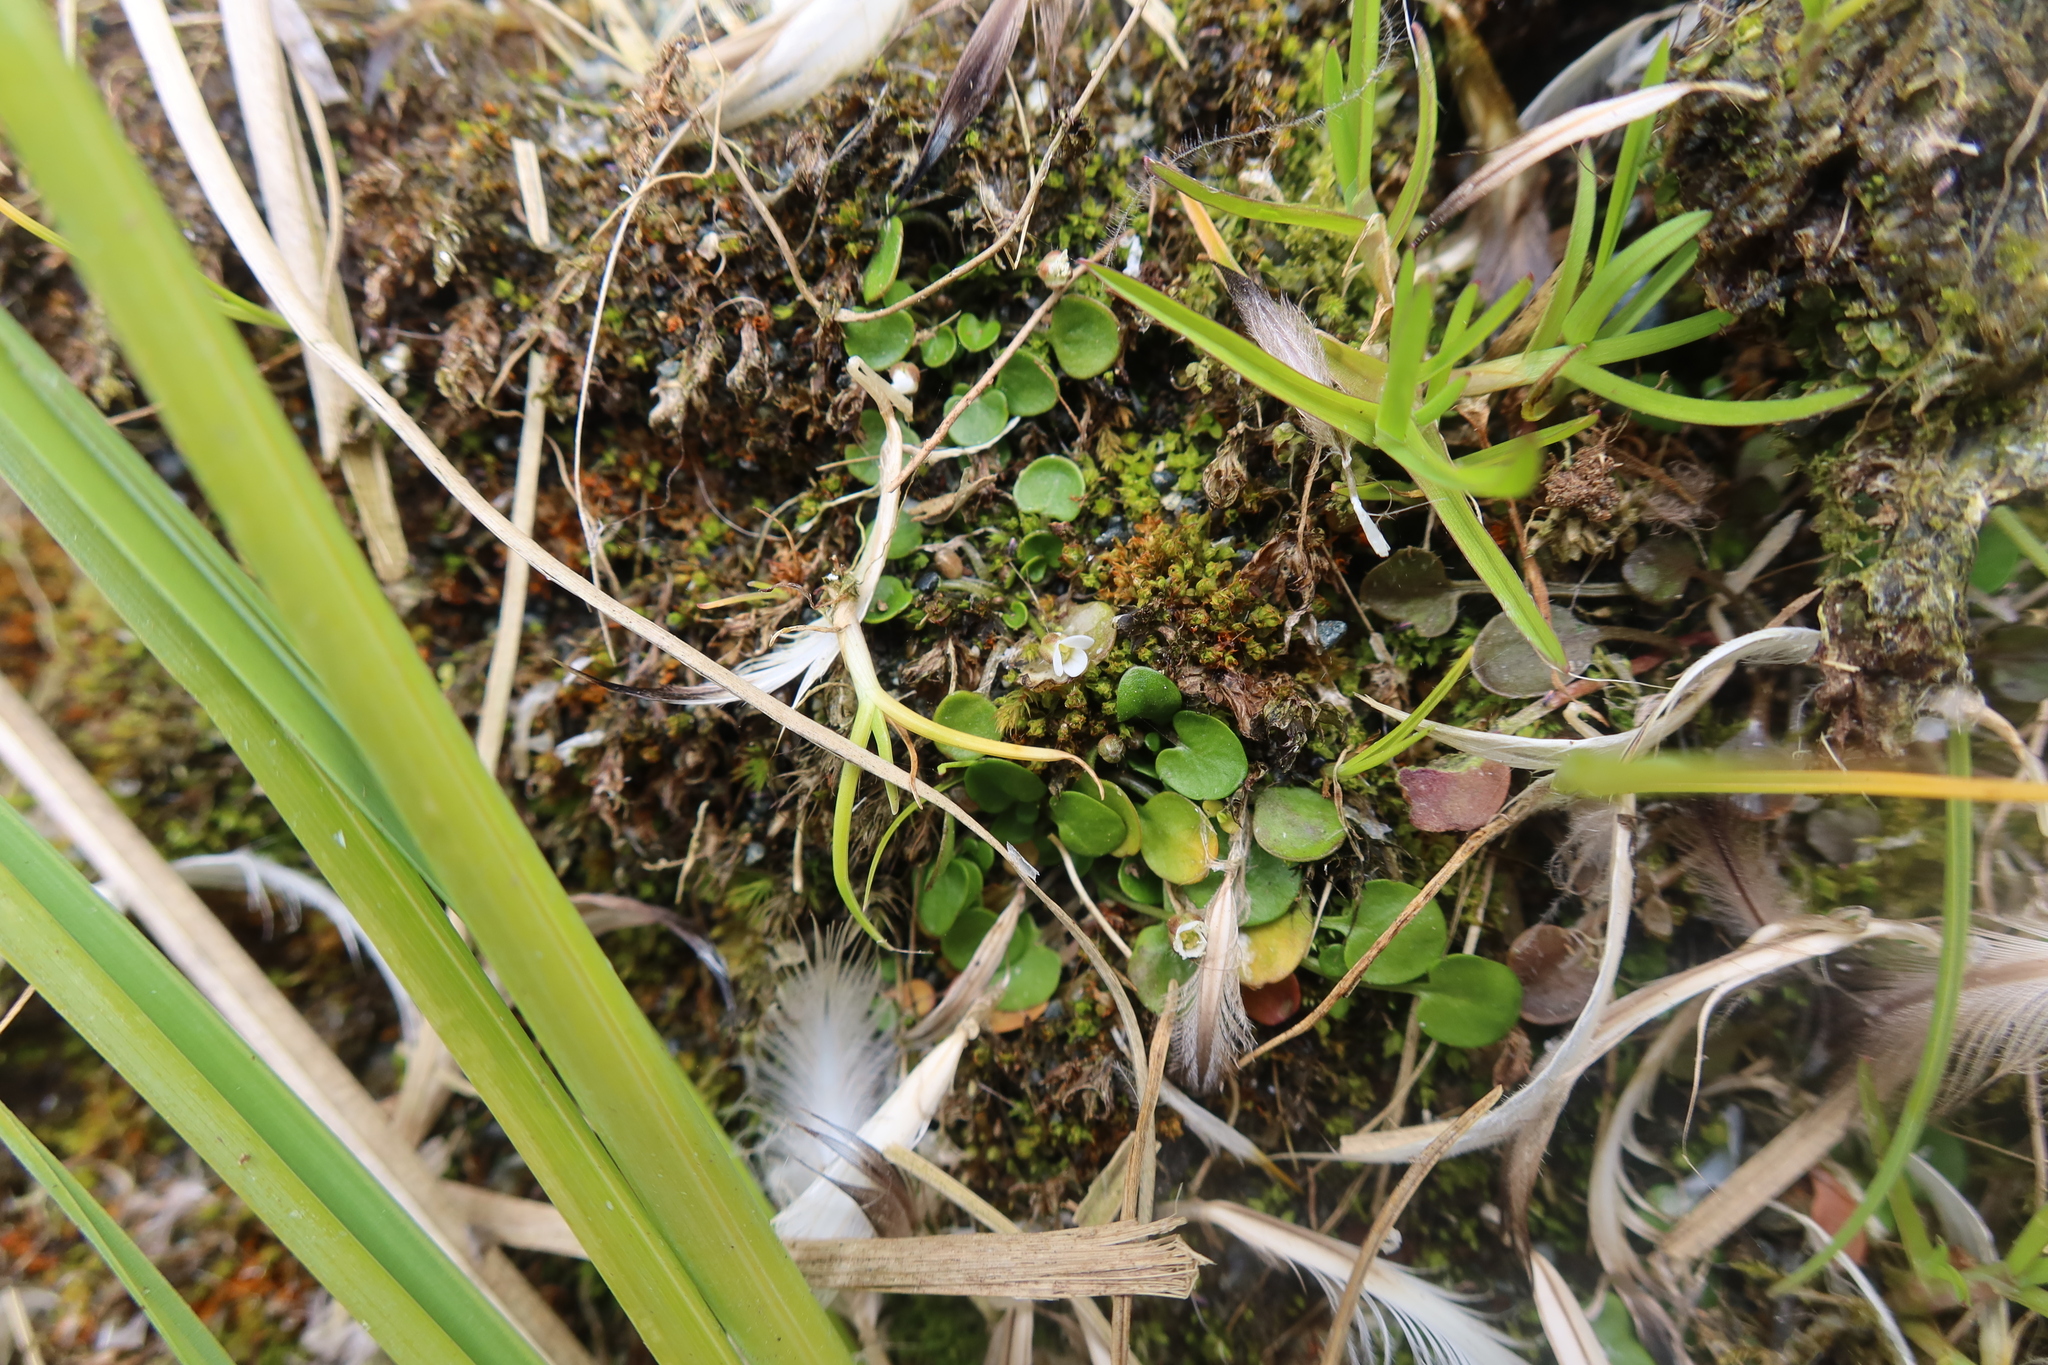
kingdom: Plantae
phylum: Tracheophyta
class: Magnoliopsida
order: Brassicales
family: Brassicaceae
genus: Cardamine
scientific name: Cardamine corymbosa
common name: New zealand bitter-cress
